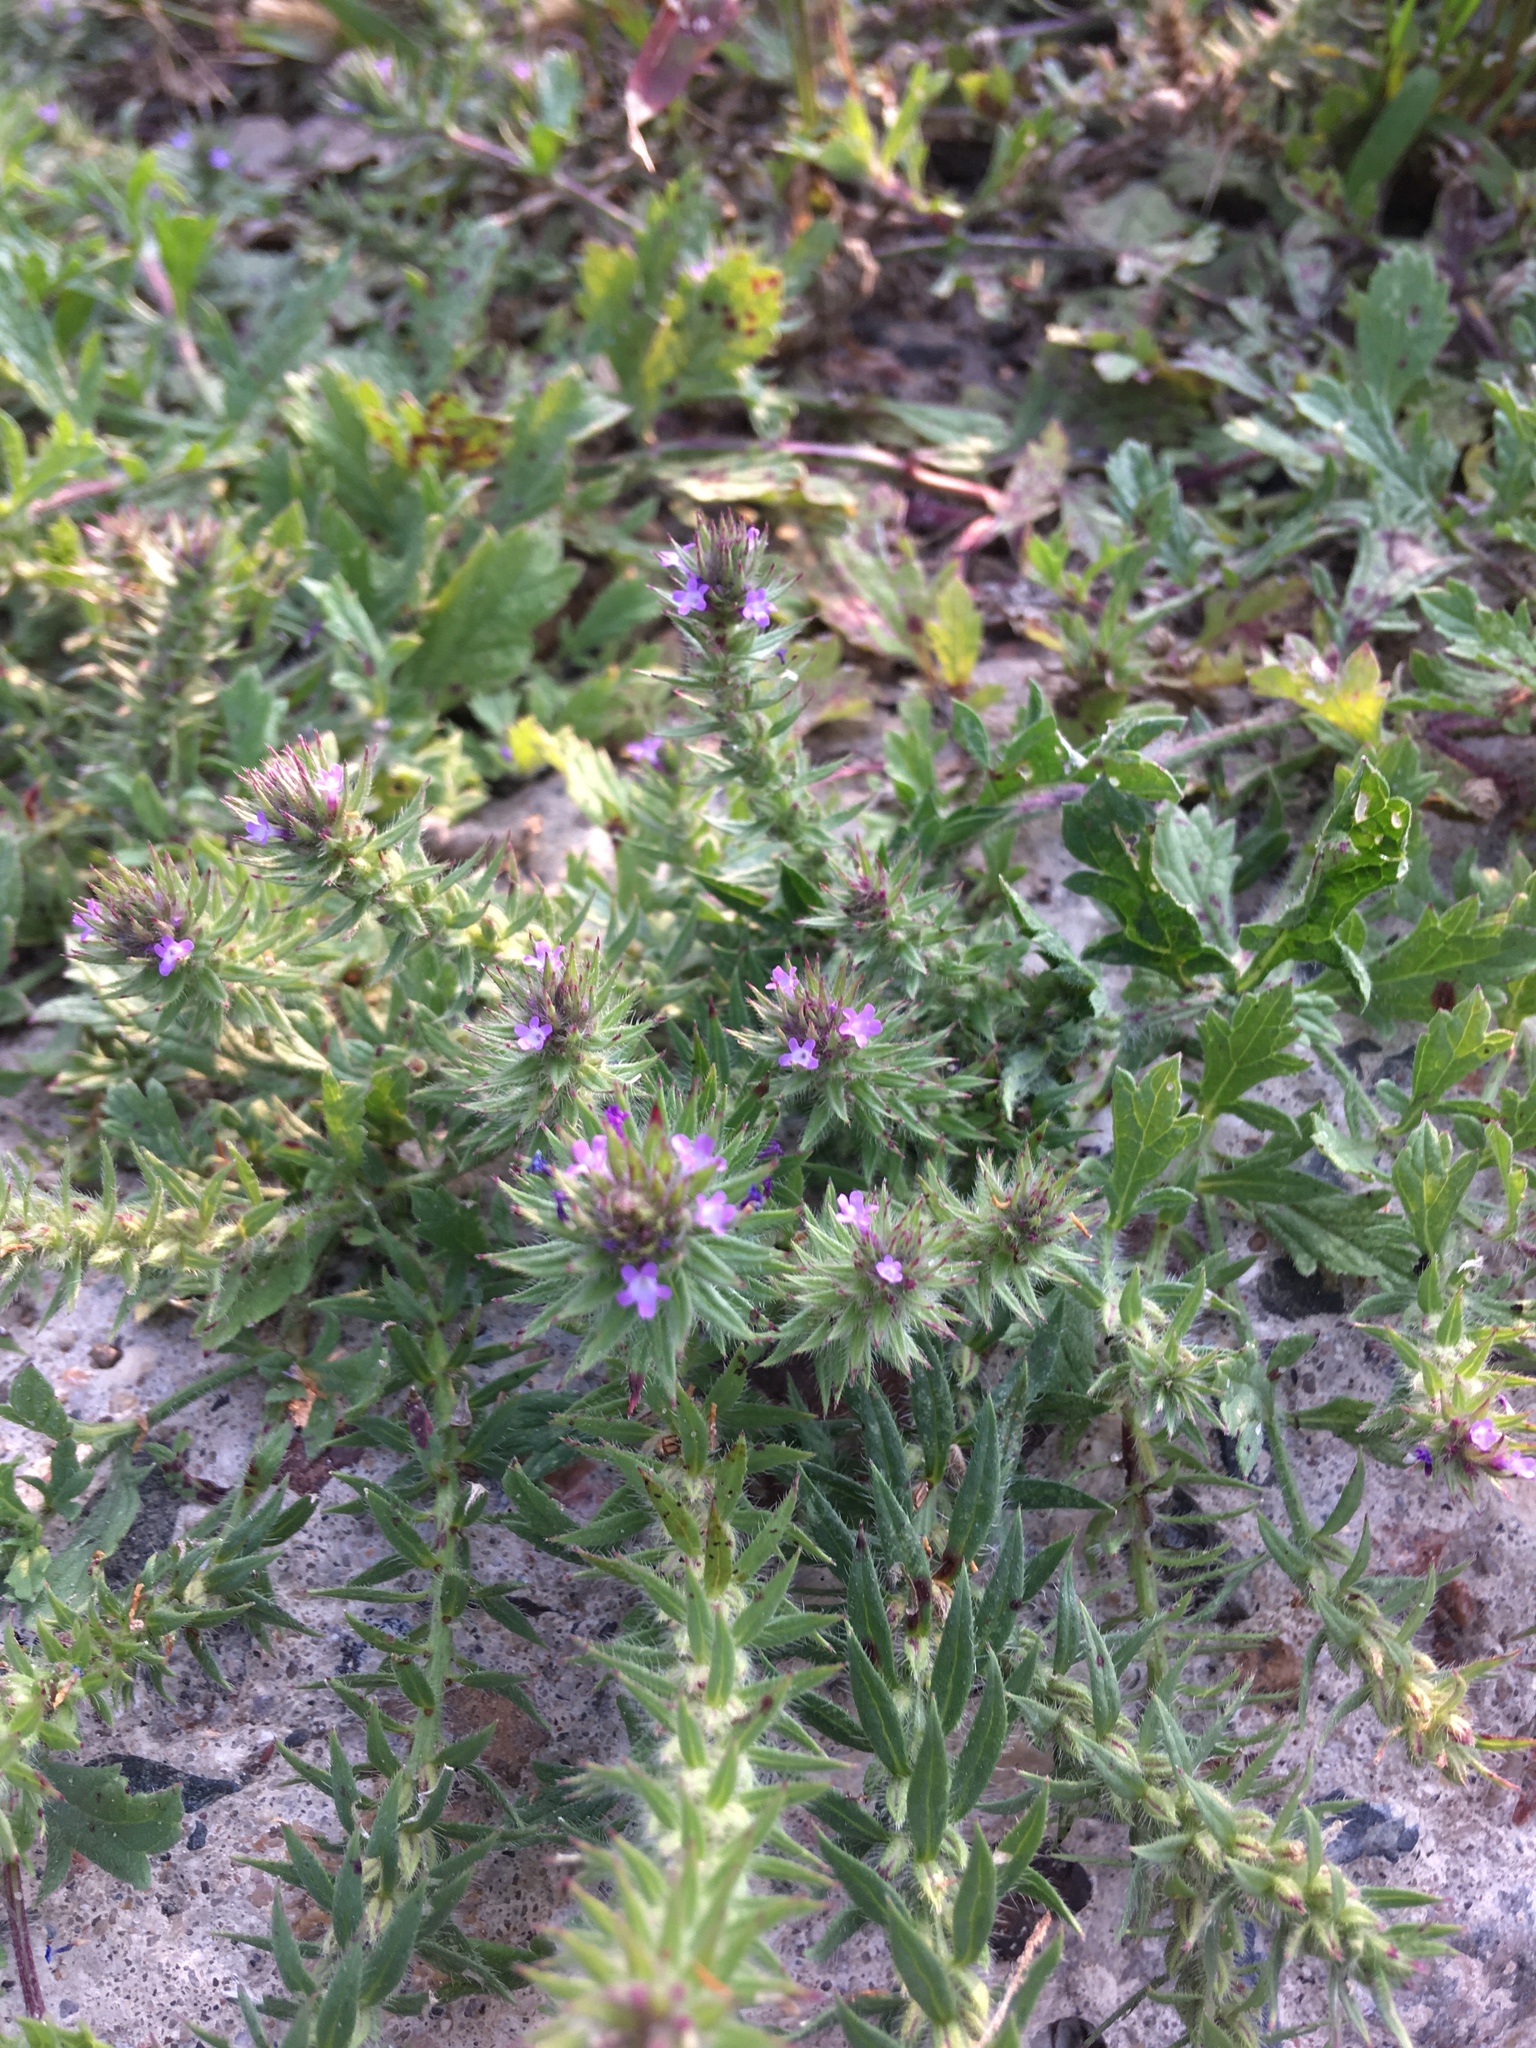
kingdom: Plantae
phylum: Tracheophyta
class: Magnoliopsida
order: Lamiales
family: Verbenaceae
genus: Verbena
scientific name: Verbena bracteata
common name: Bracted vervain
